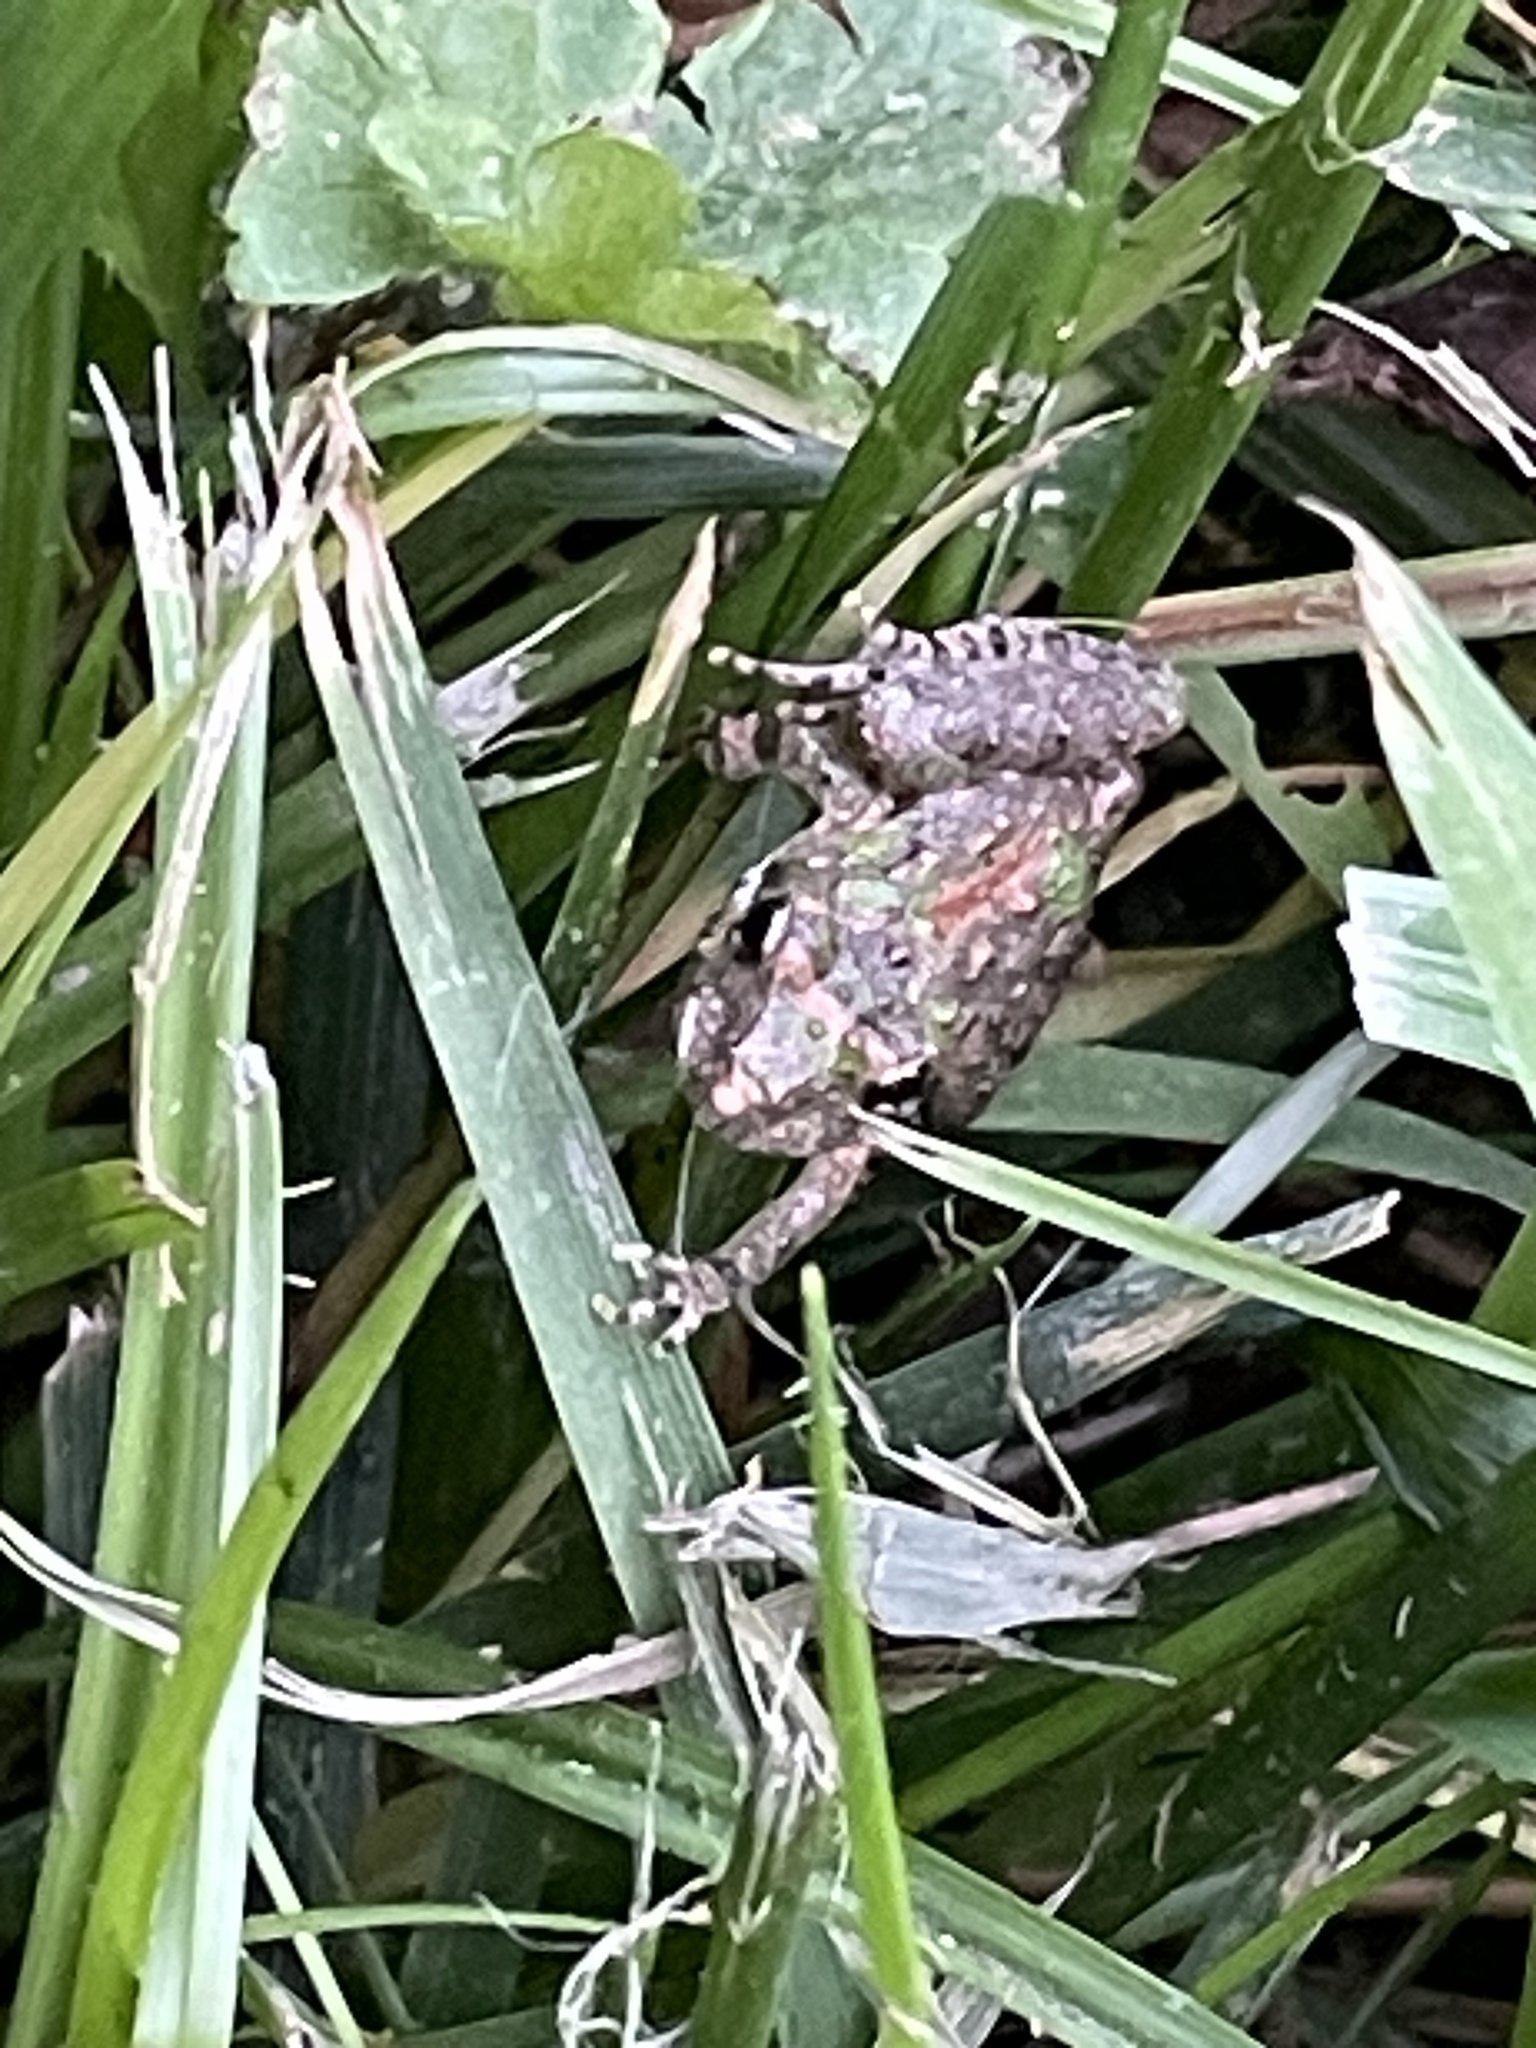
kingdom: Animalia
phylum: Chordata
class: Amphibia
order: Anura
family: Hylidae
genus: Acris
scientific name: Acris crepitans
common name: Northern cricket frog
